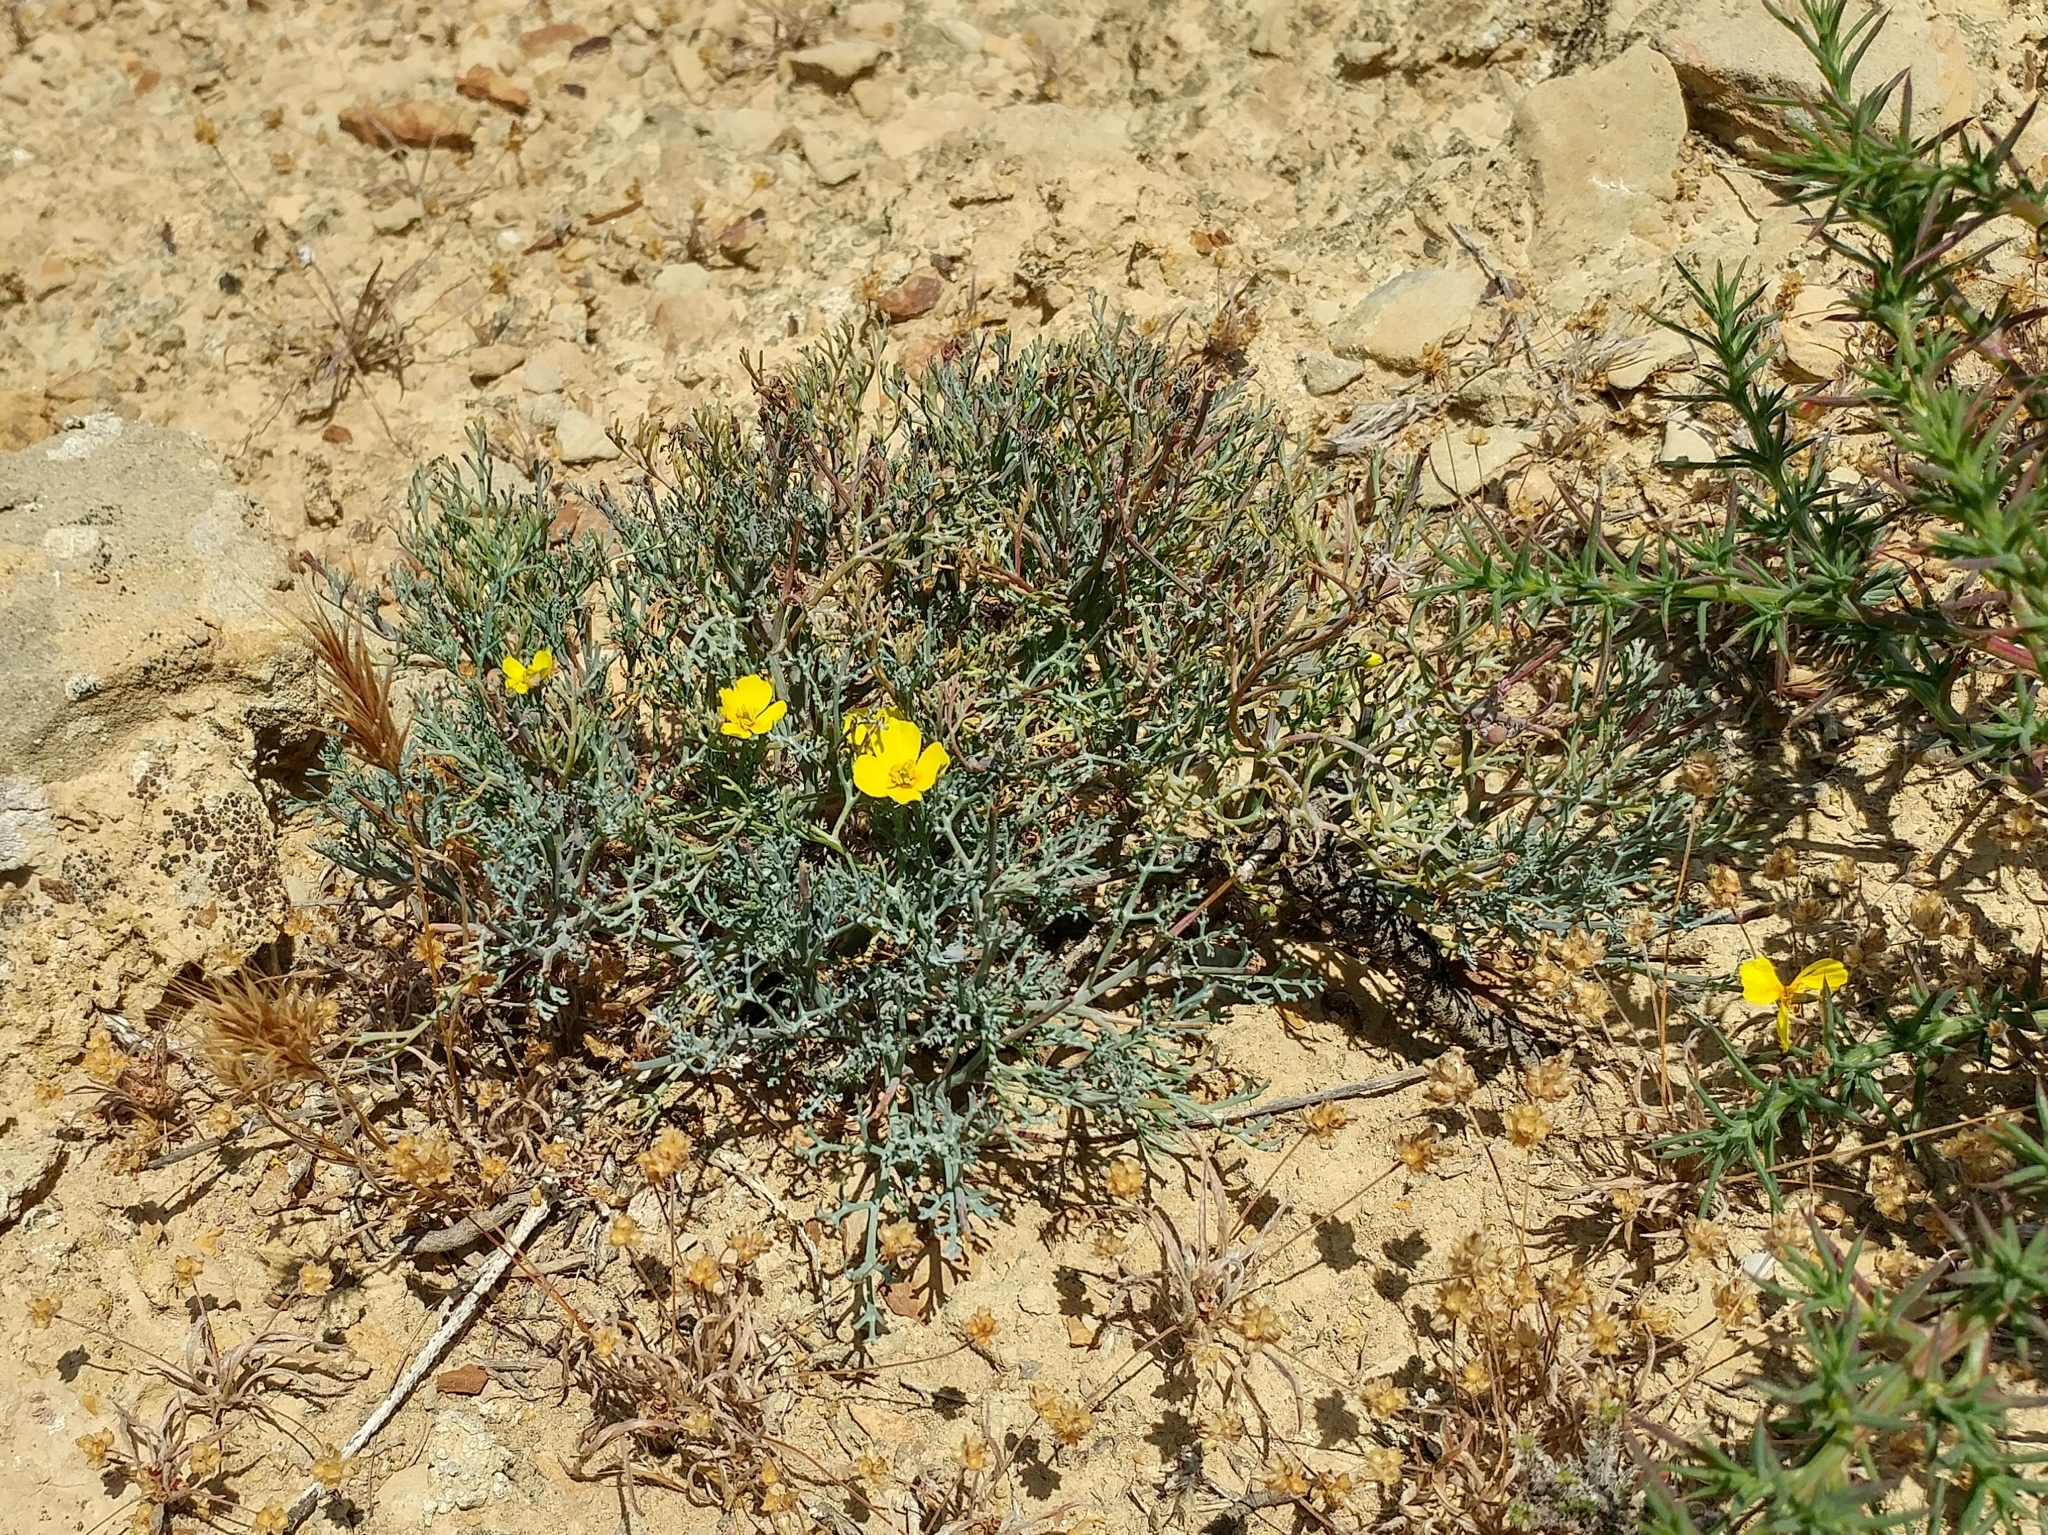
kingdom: Plantae
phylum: Tracheophyta
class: Magnoliopsida
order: Ranunculales
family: Papaveraceae
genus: Eschscholzia
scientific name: Eschscholzia ramosa
